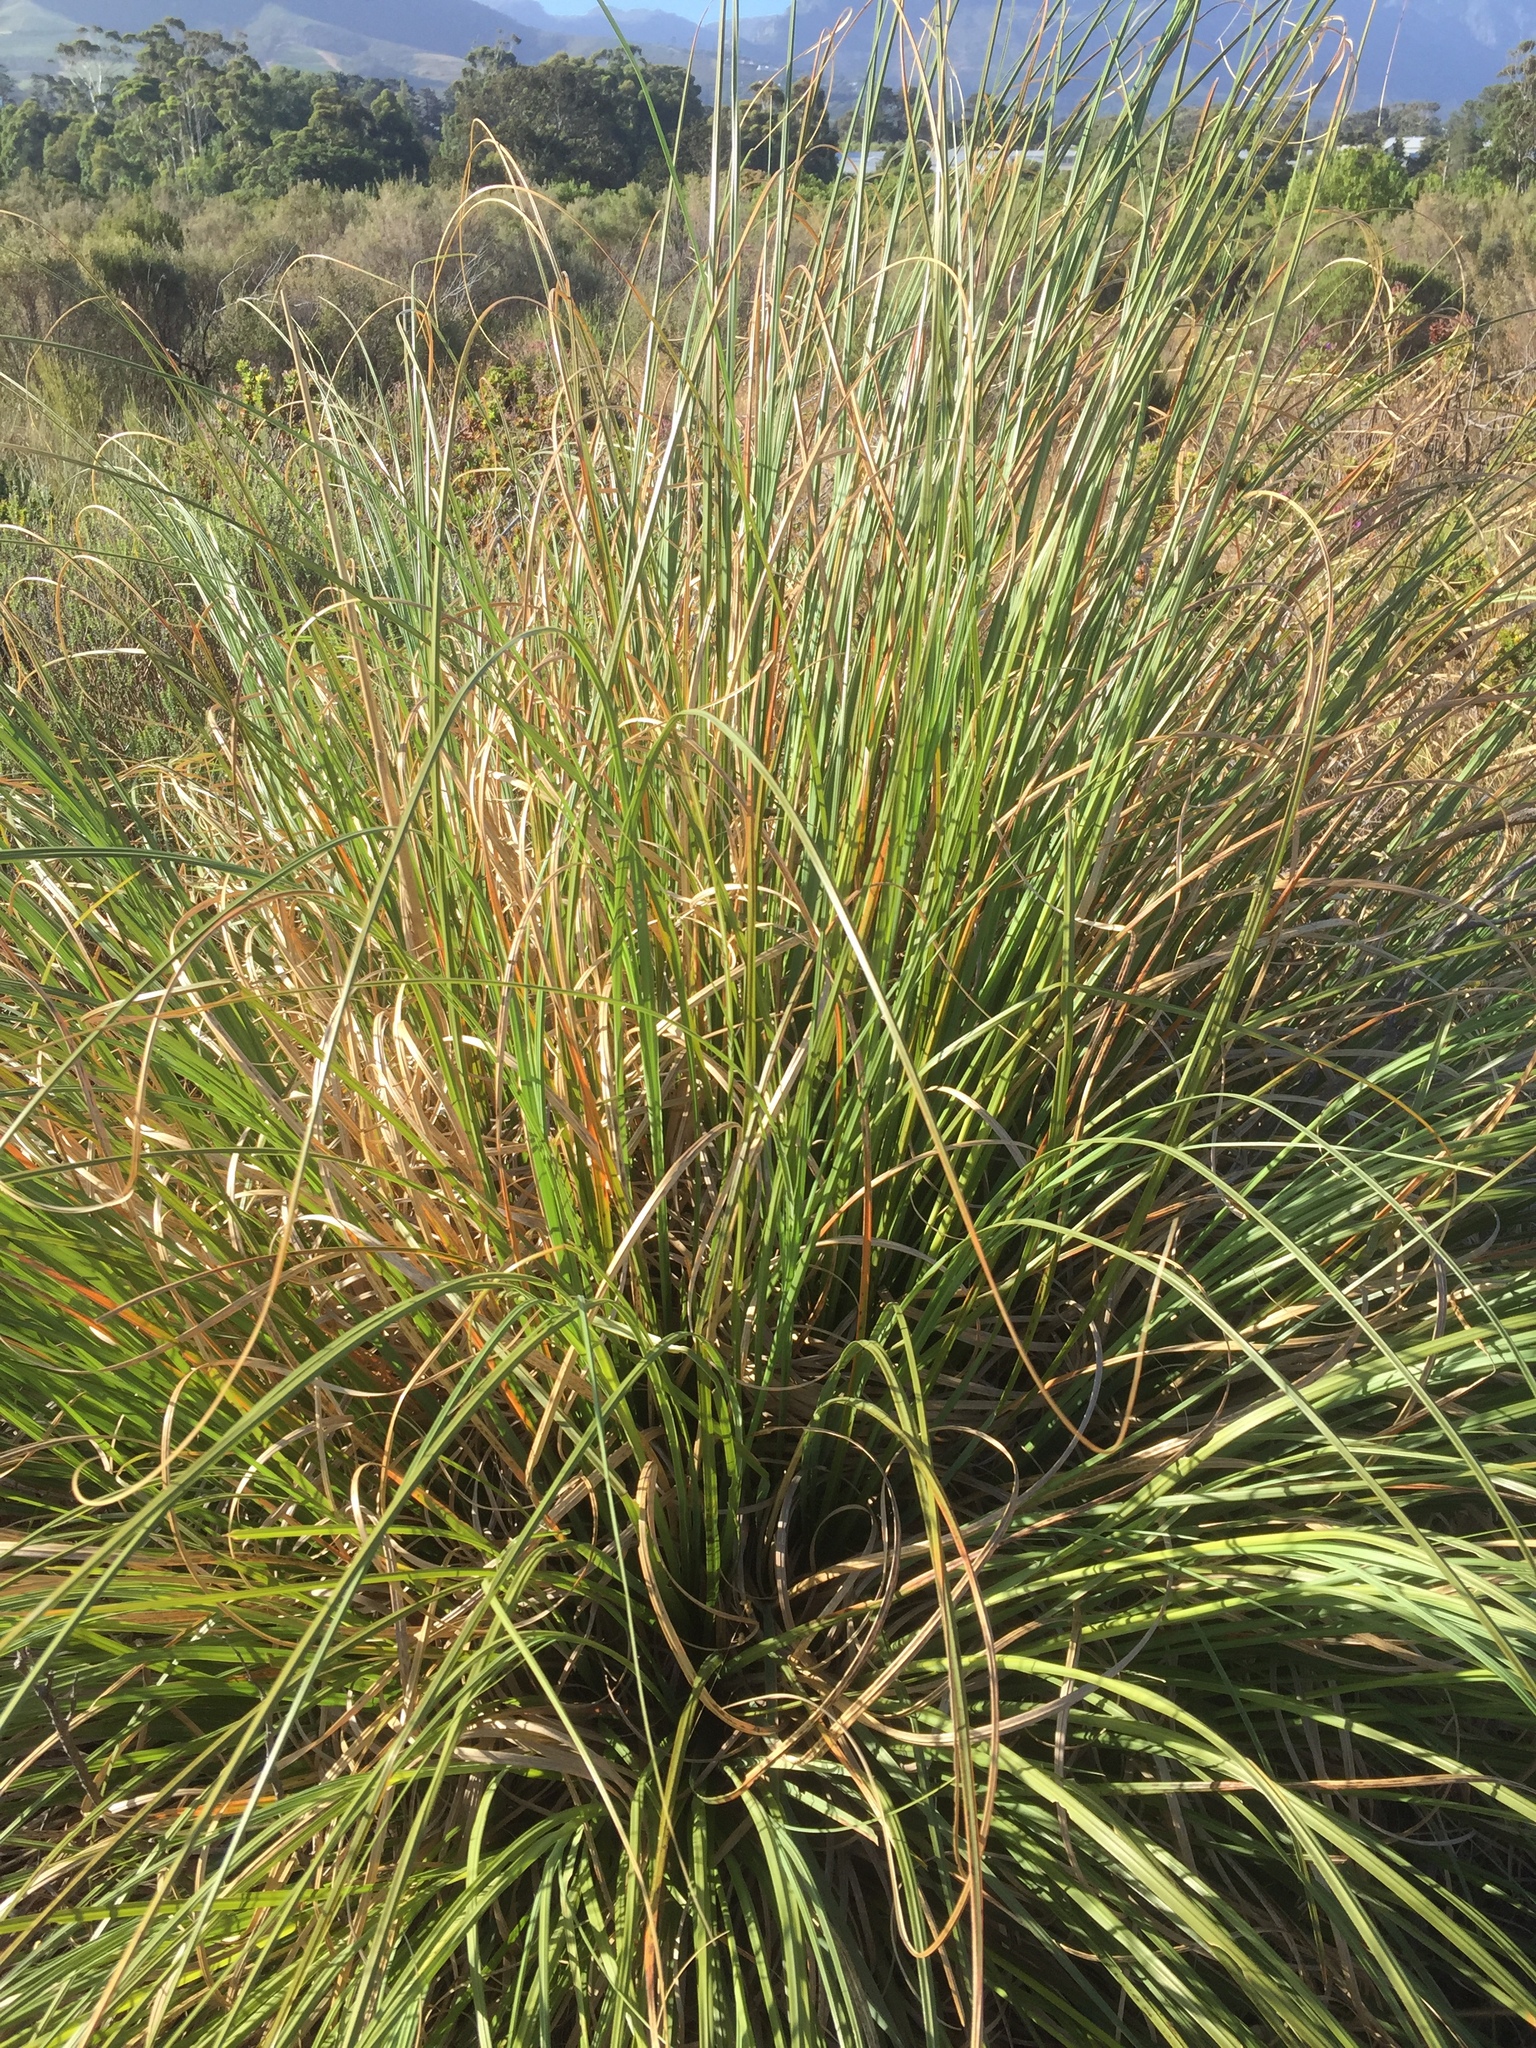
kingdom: Plantae
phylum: Tracheophyta
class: Liliopsida
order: Poales
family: Poaceae
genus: Cortaderia
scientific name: Cortaderia selloana
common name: Uruguayan pampas grass
